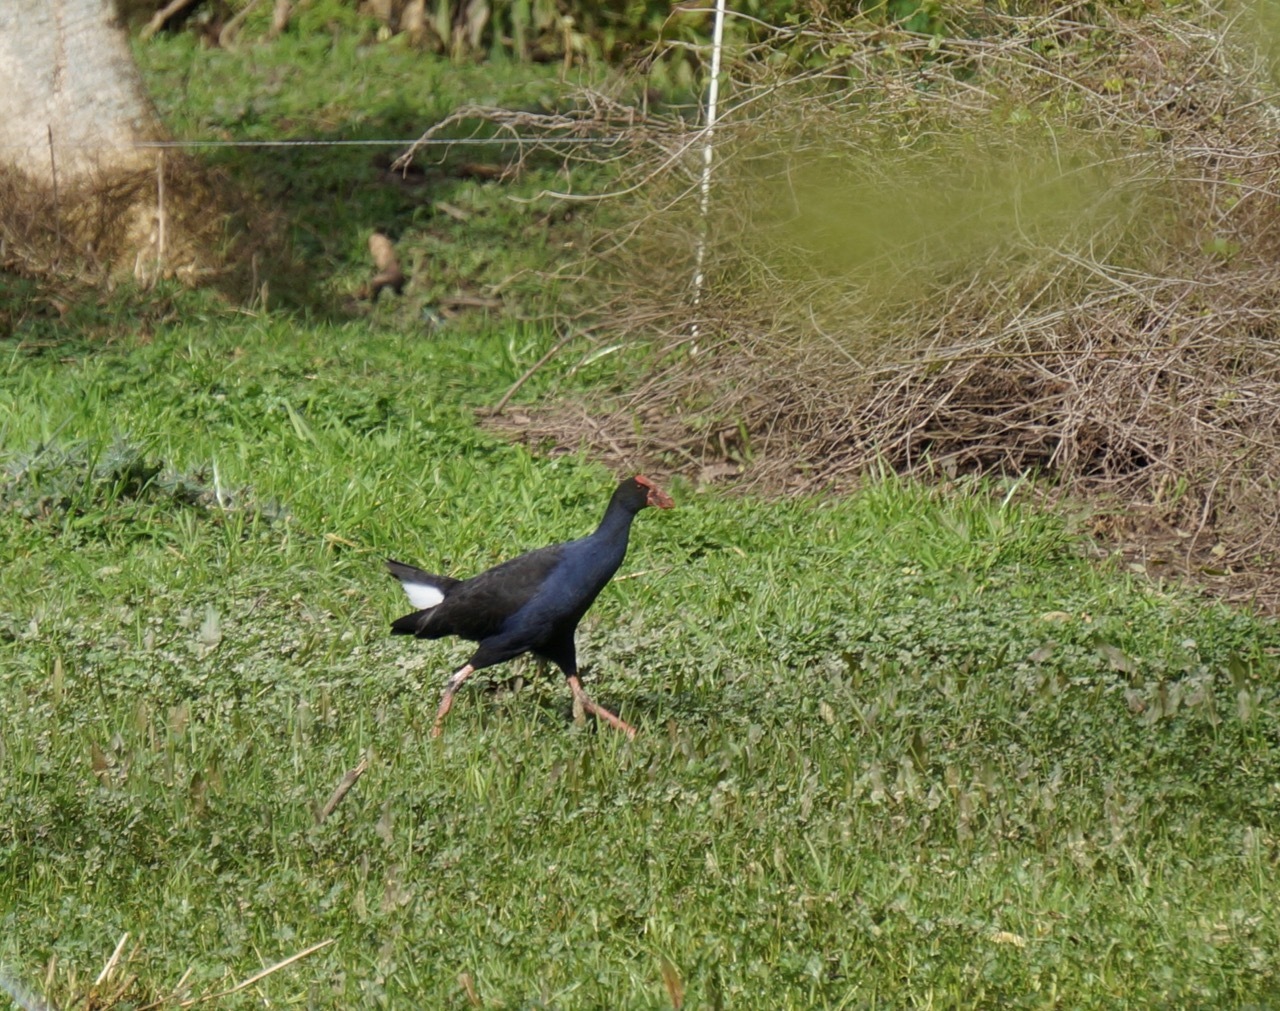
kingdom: Animalia
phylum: Chordata
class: Aves
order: Gruiformes
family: Rallidae
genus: Porphyrio
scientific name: Porphyrio melanotus
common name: Australasian swamphen
